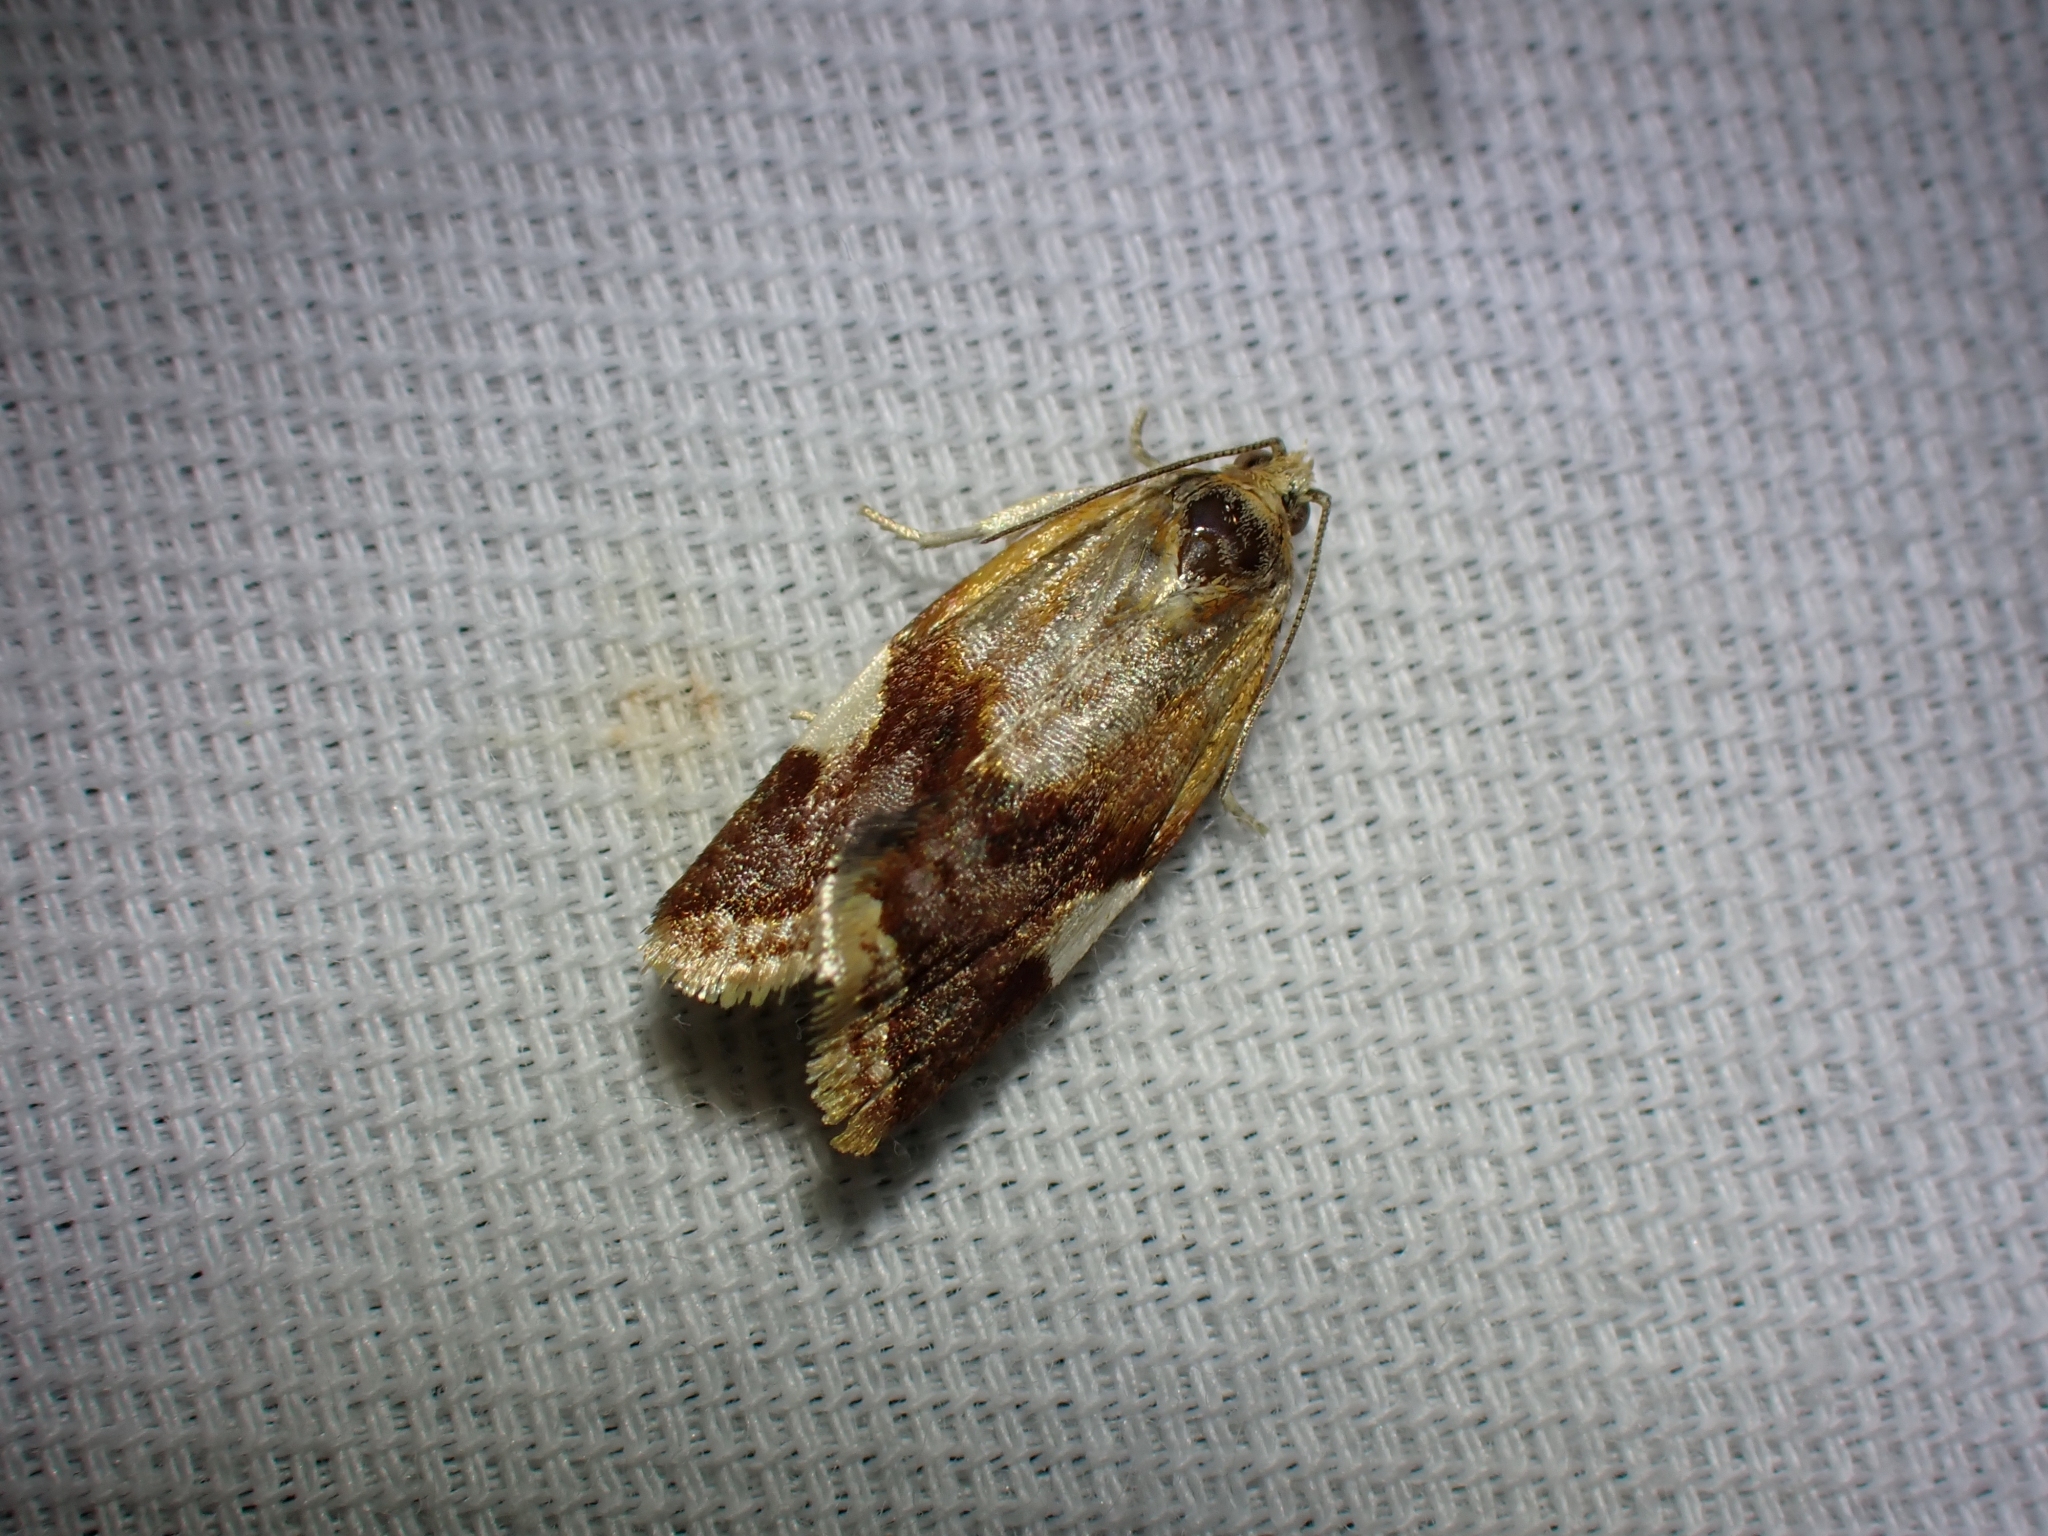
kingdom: Animalia
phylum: Arthropoda
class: Insecta
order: Lepidoptera
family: Tortricidae
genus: Clepsis
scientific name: Clepsis persicana
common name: White triangle tortrix
